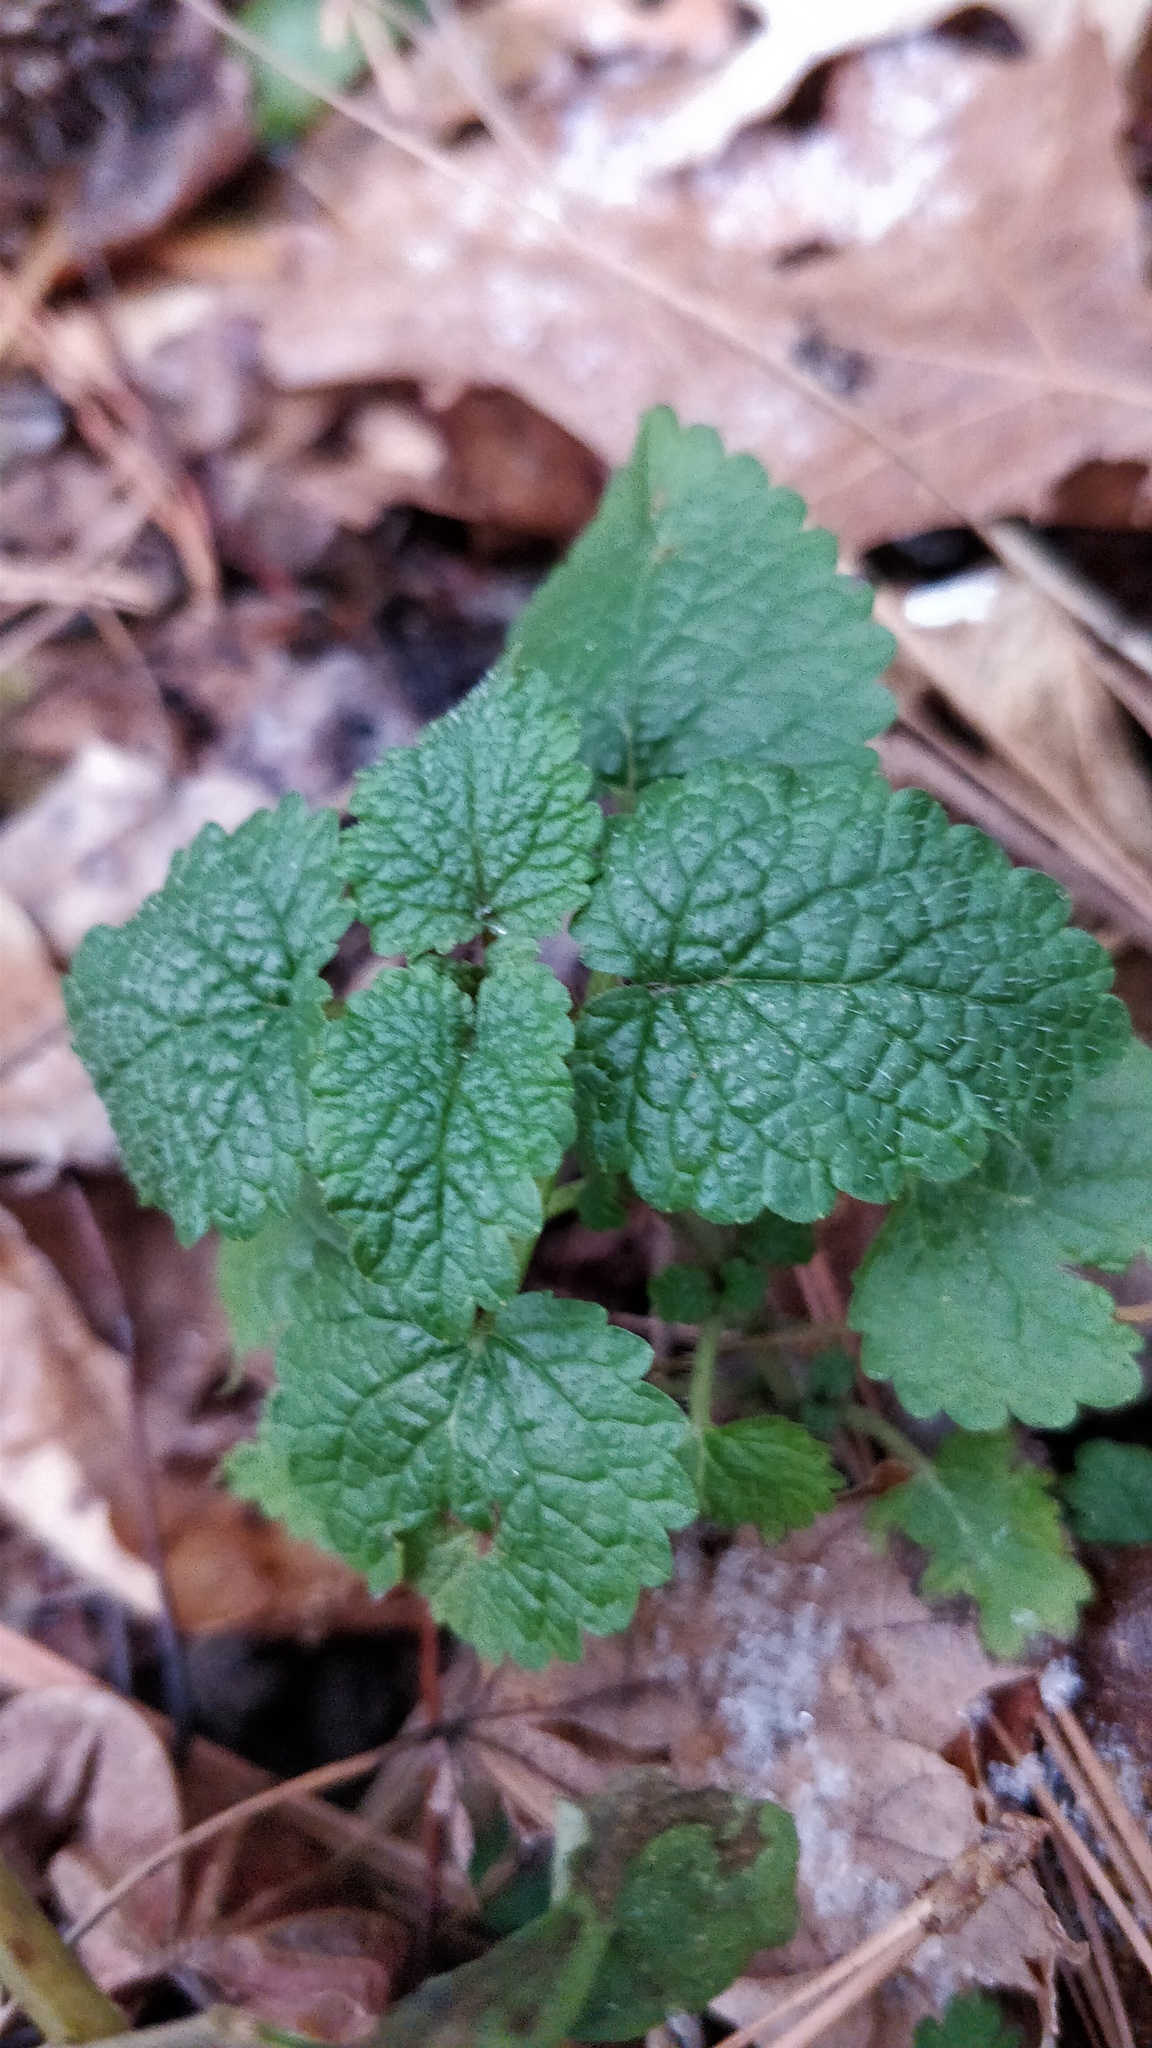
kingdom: Plantae
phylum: Tracheophyta
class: Magnoliopsida
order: Lamiales
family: Lamiaceae
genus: Melissa
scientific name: Melissa officinalis
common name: Balm
